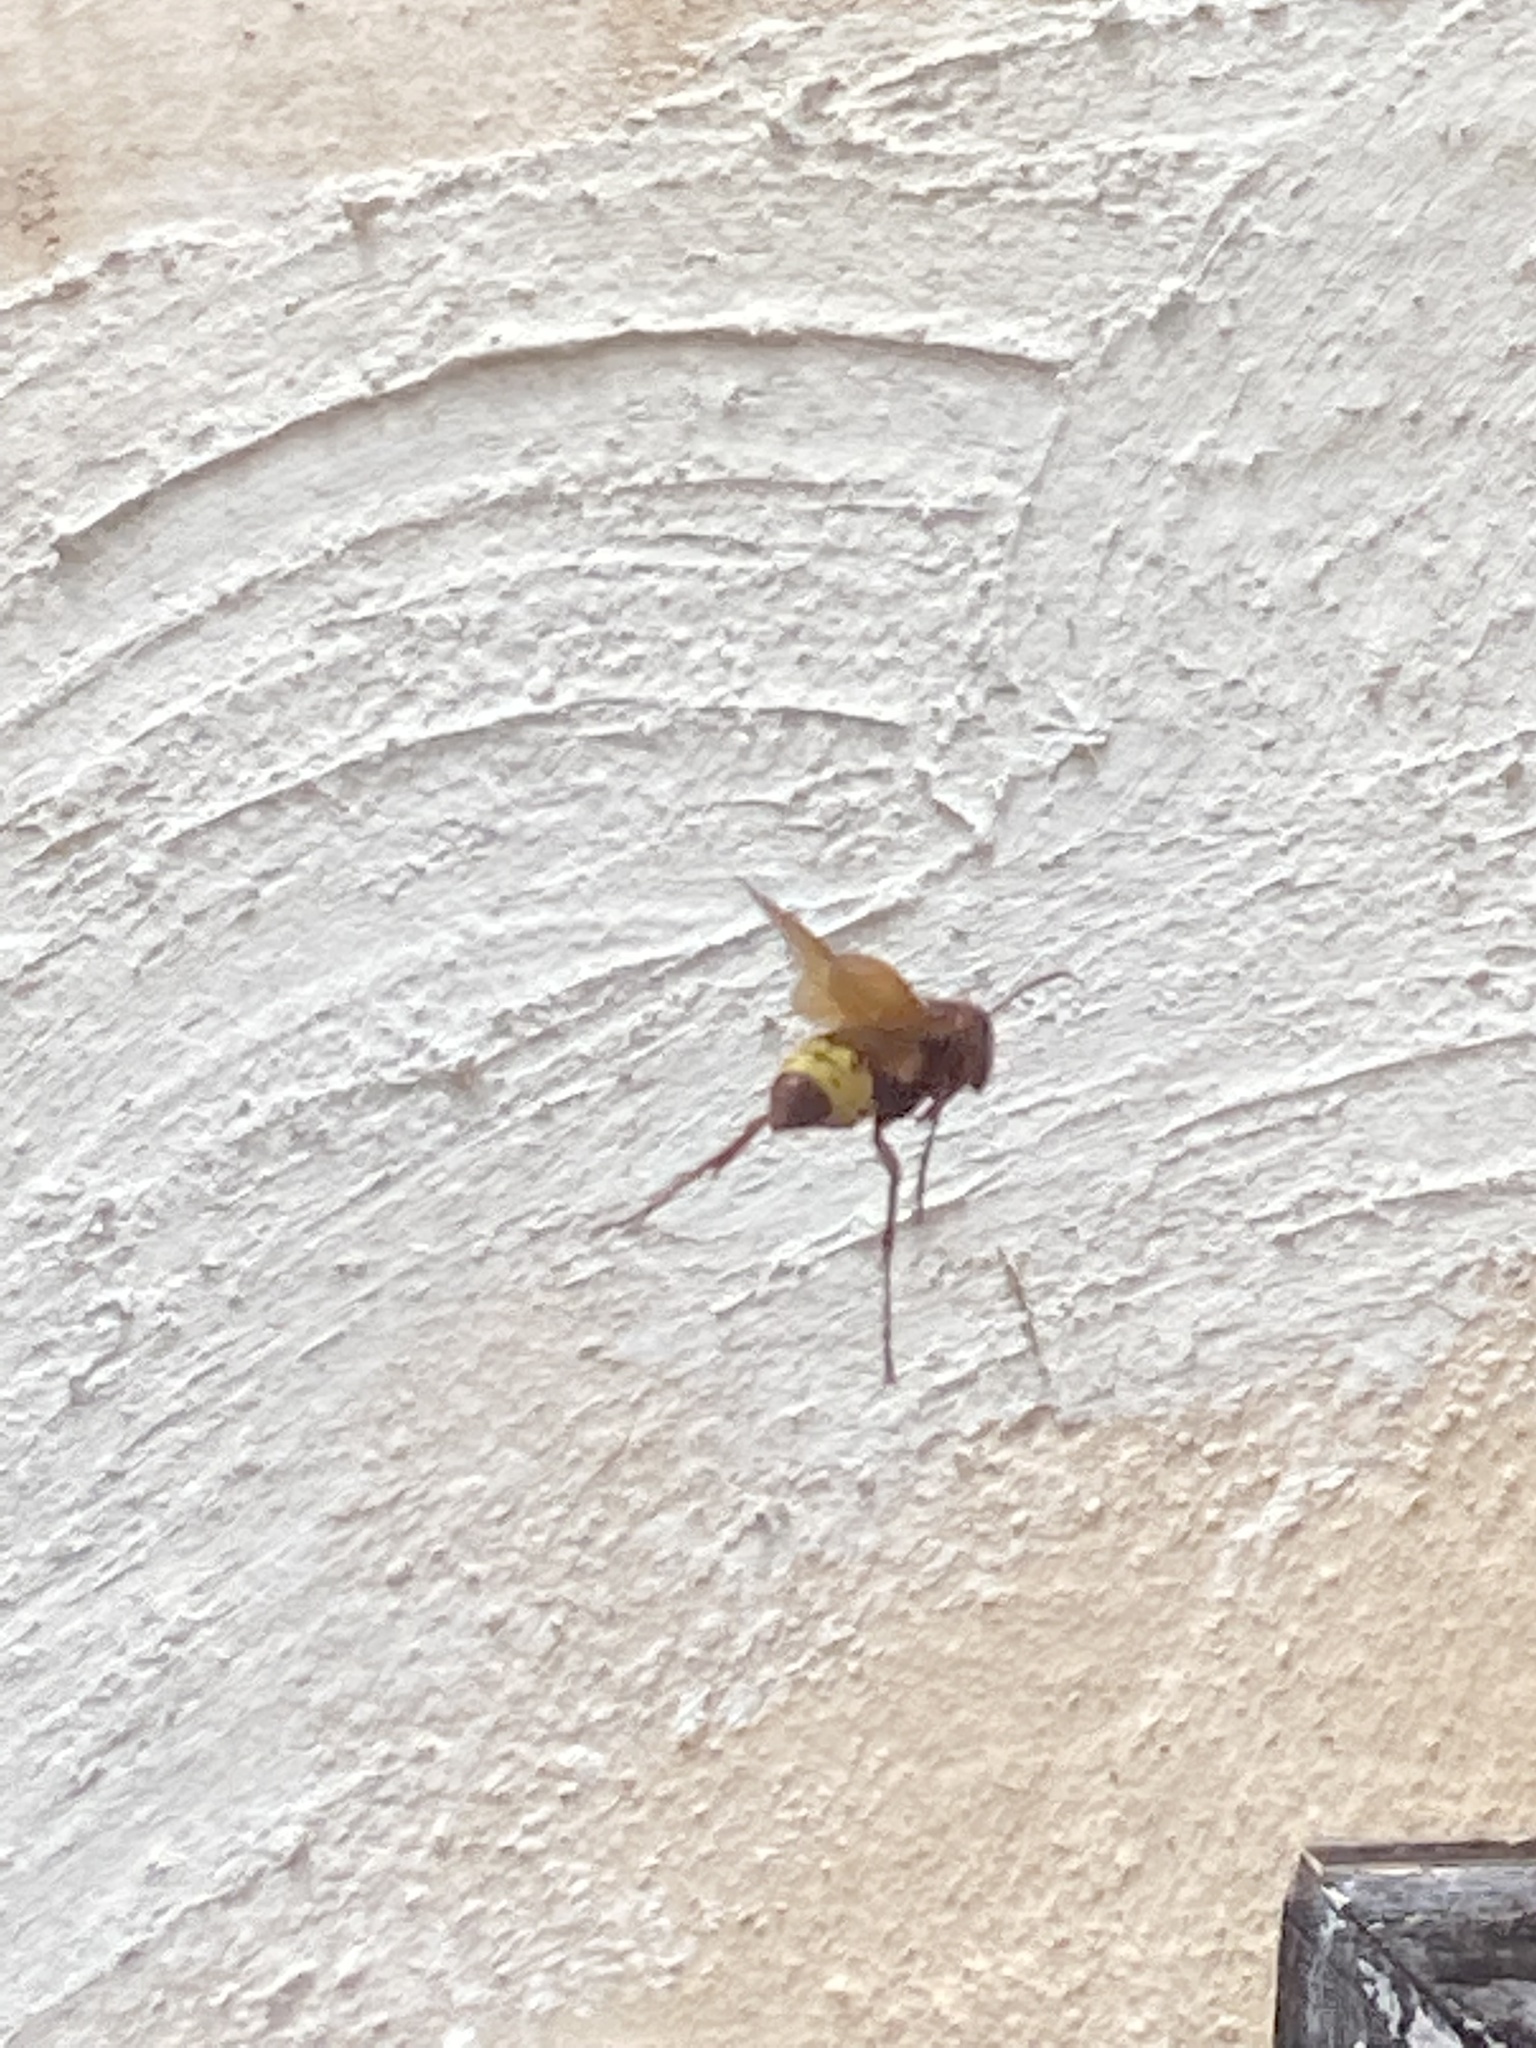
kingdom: Animalia
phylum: Arthropoda
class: Insecta
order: Hymenoptera
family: Vespidae
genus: Vespa
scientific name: Vespa orientalis
